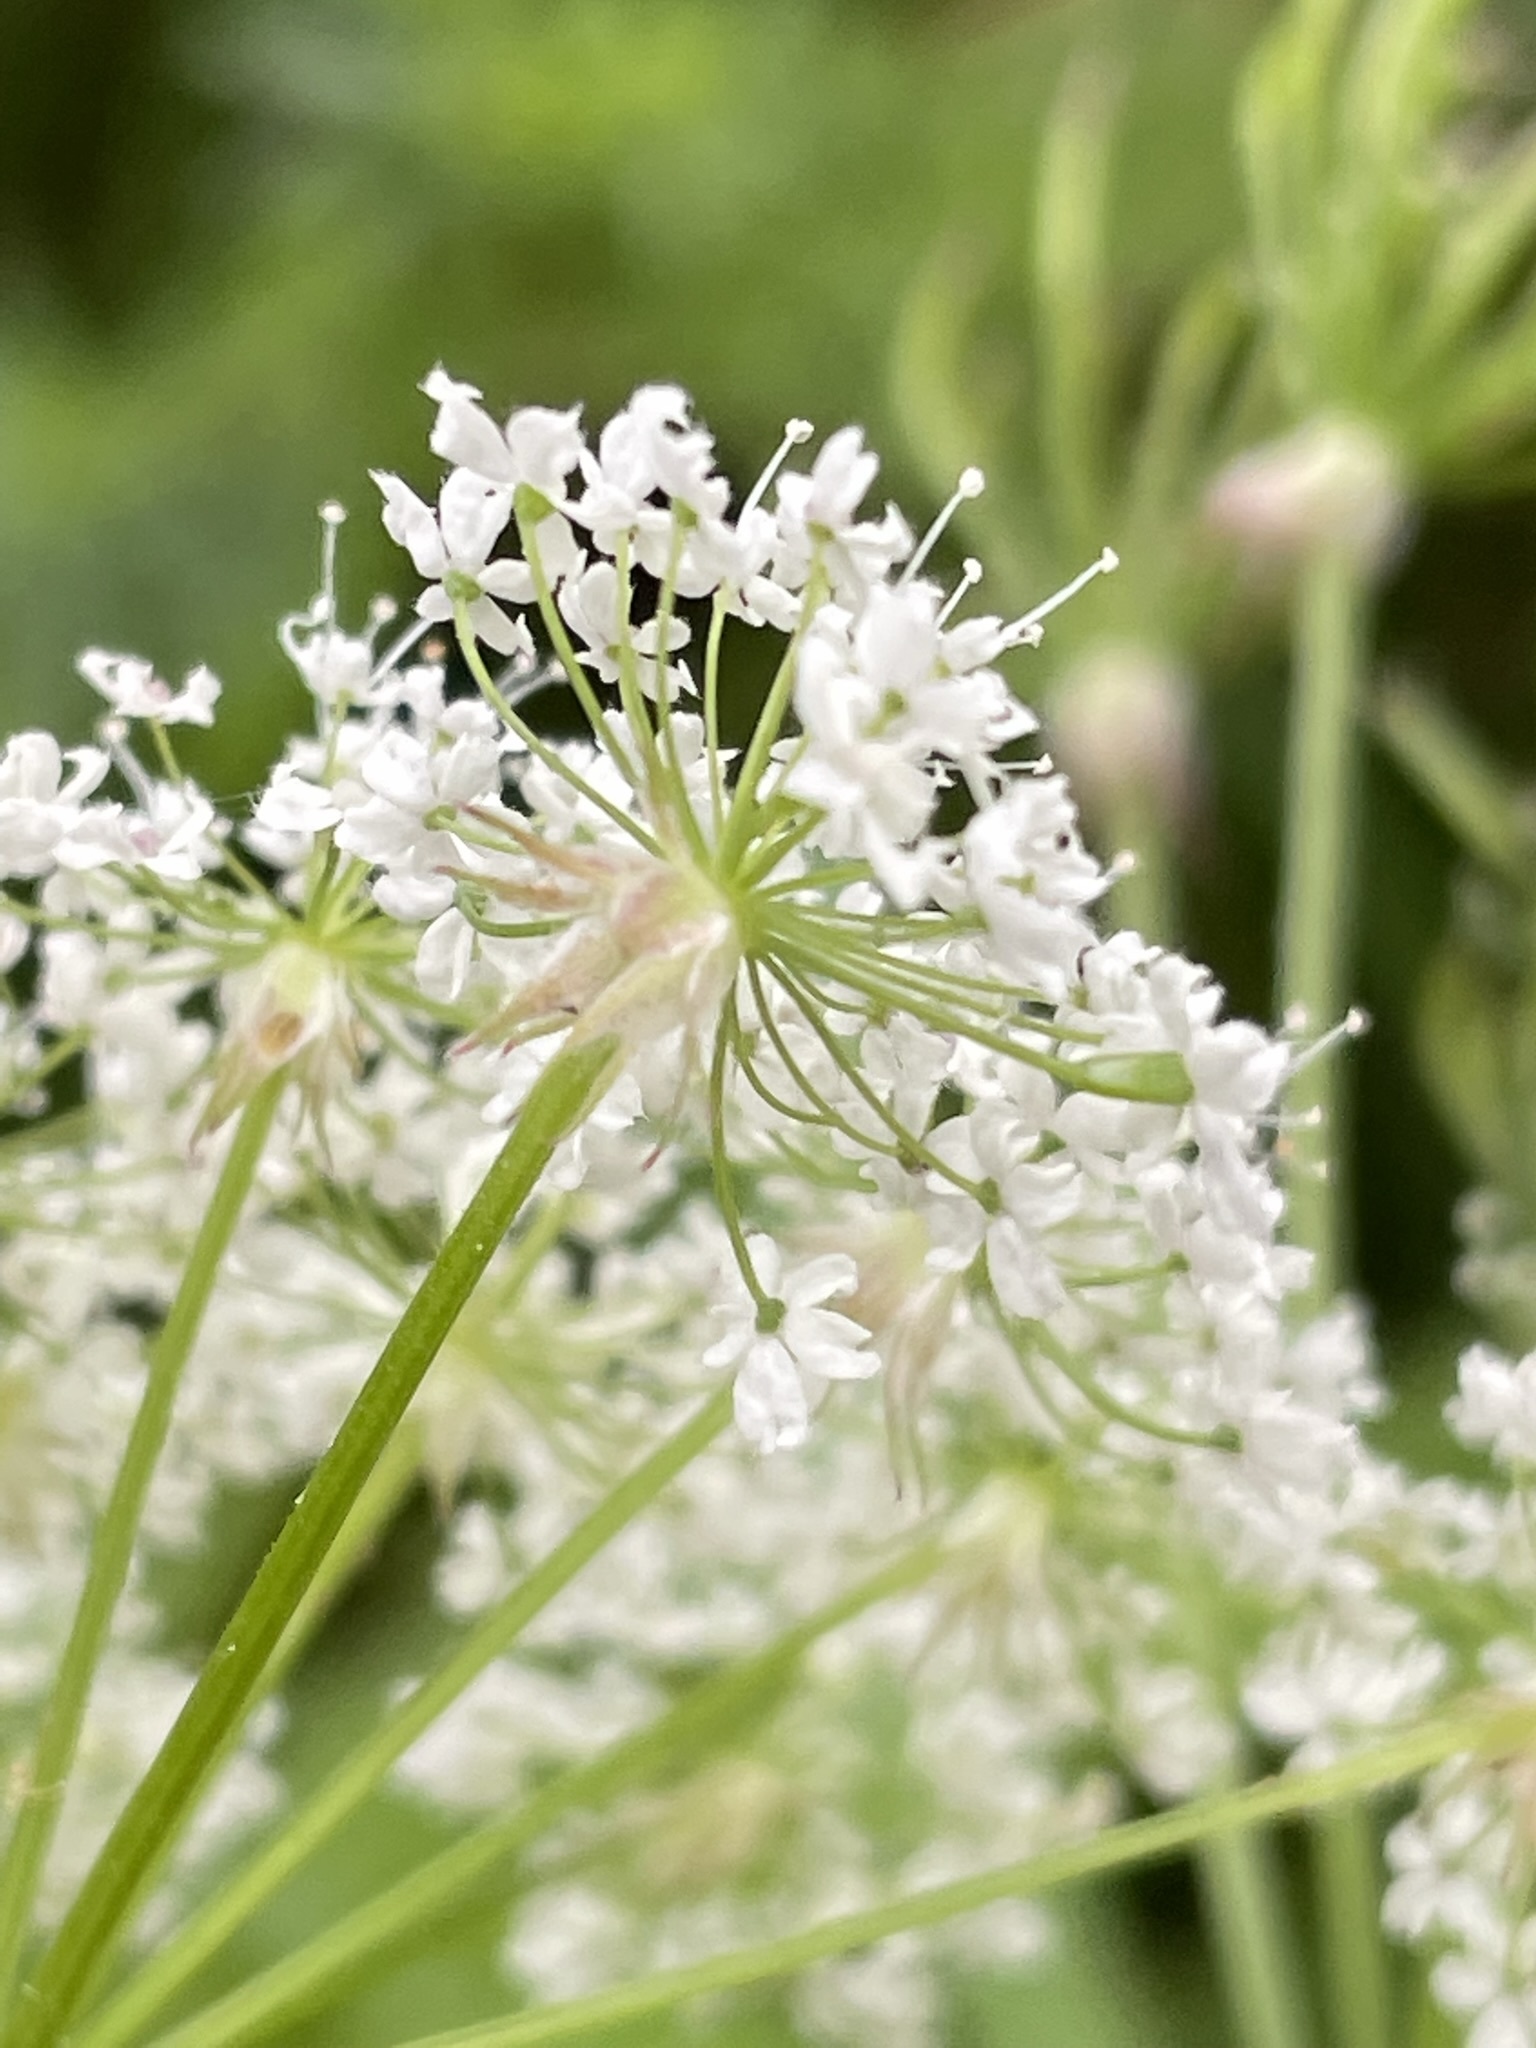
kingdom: Plantae
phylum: Tracheophyta
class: Magnoliopsida
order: Apiales
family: Apiaceae
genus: Chaerophyllum
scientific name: Chaerophyllum hirsutum
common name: Hairy chervil
